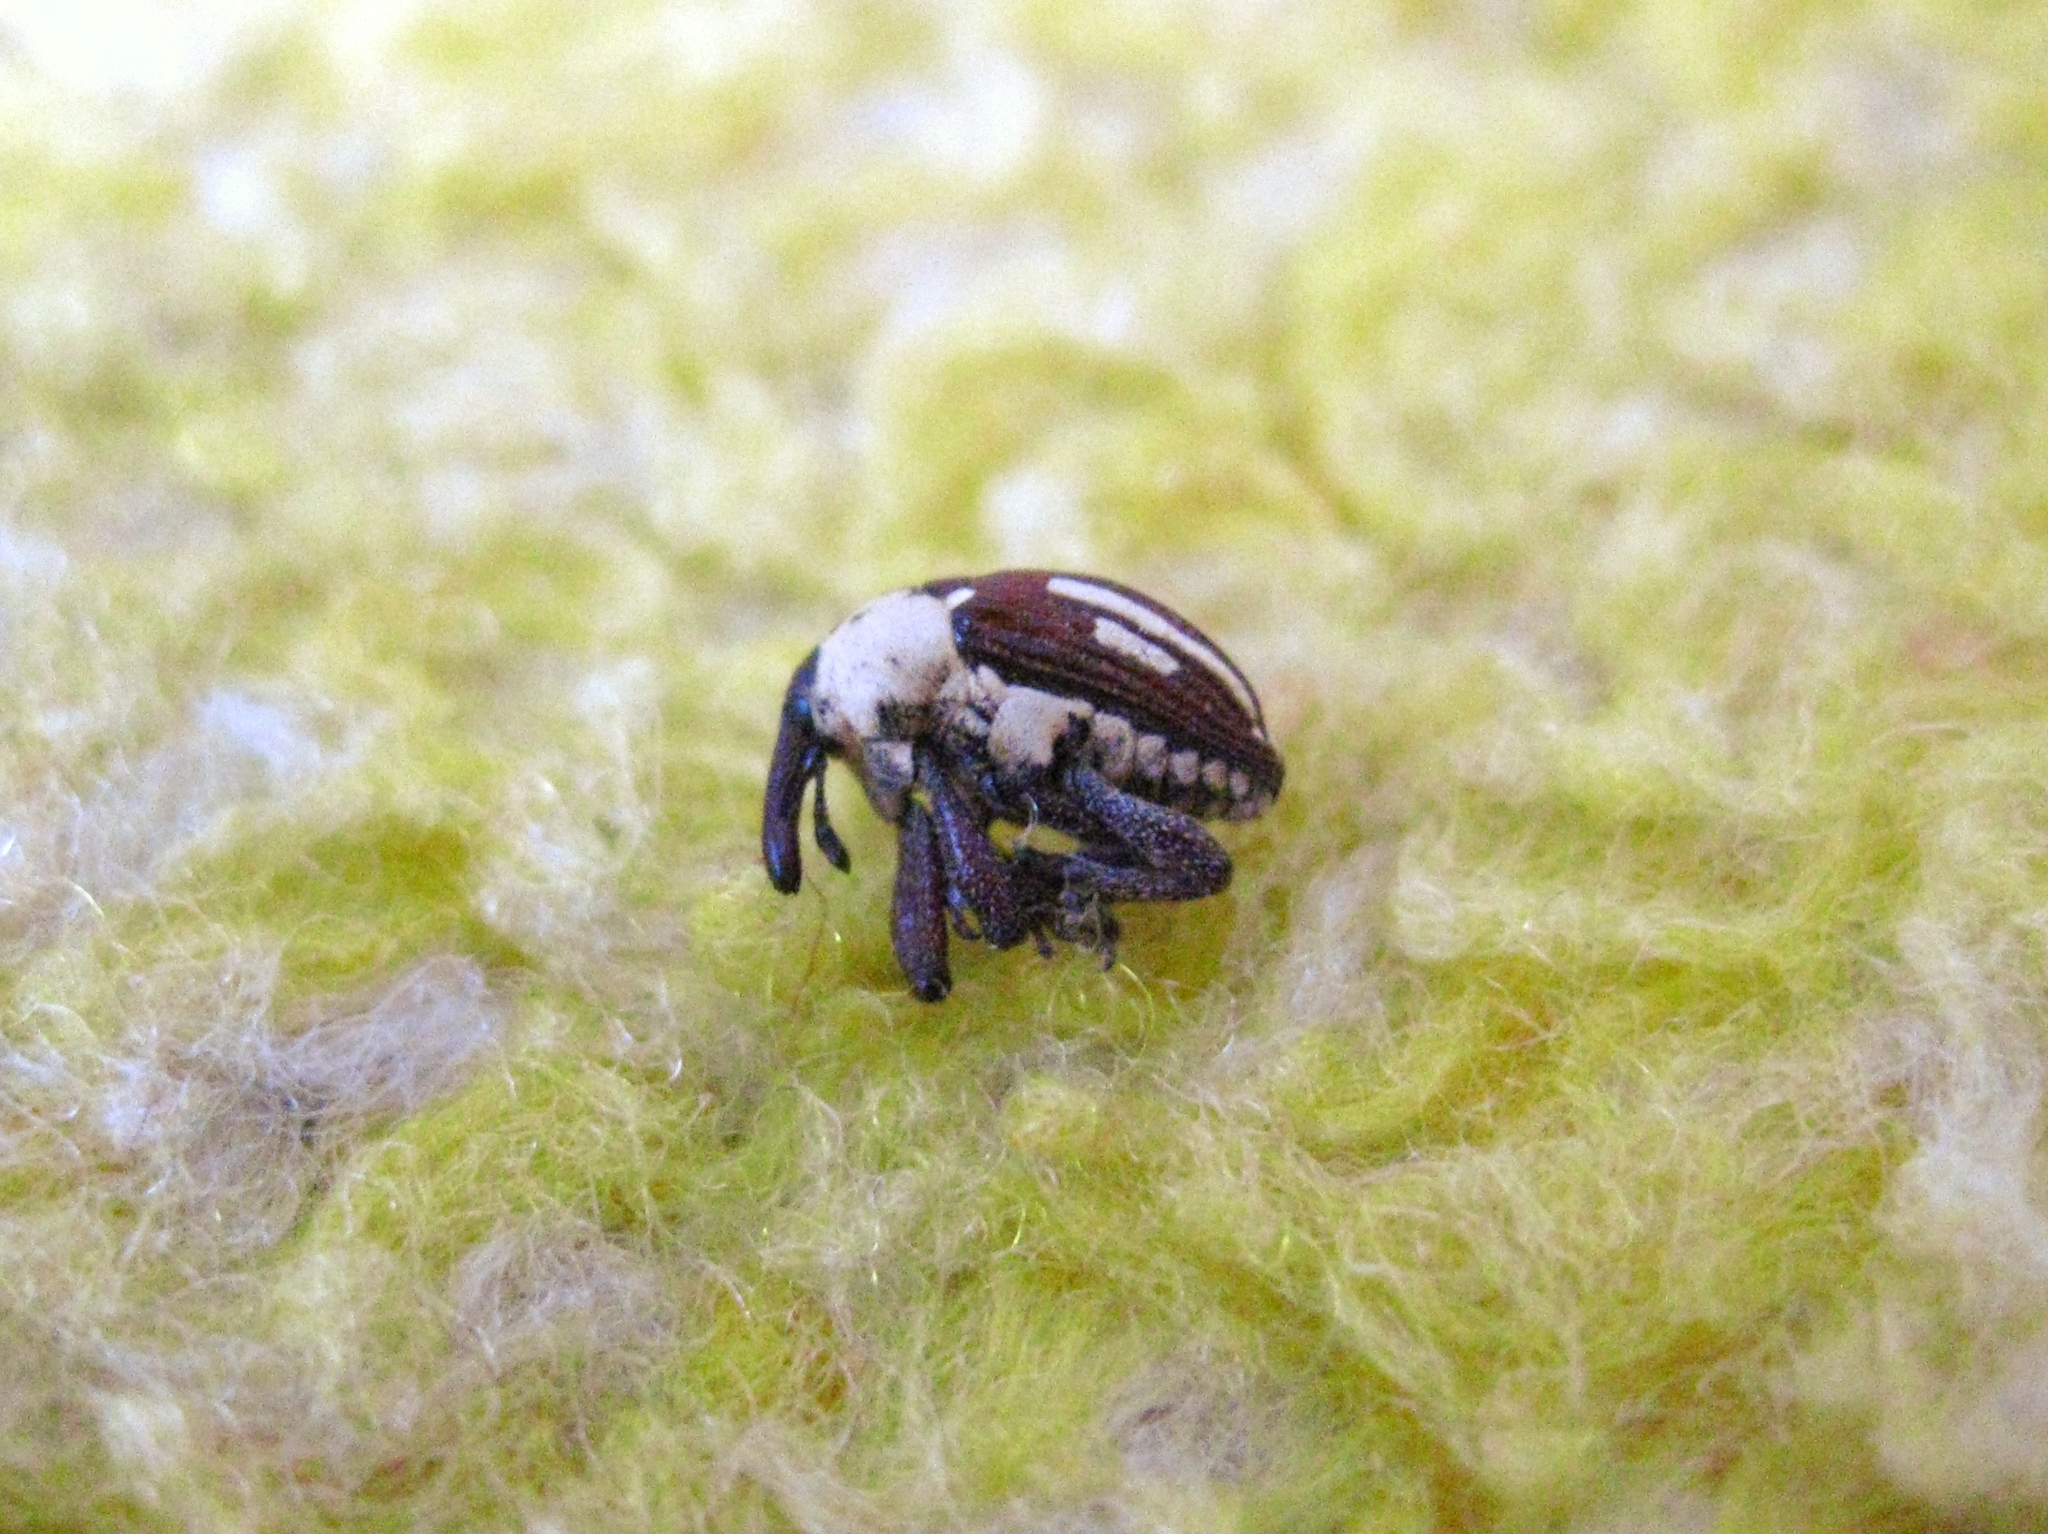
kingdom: Animalia
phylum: Arthropoda
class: Insecta
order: Coleoptera
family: Curculionidae
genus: Sternuchopsis
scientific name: Sternuchopsis
